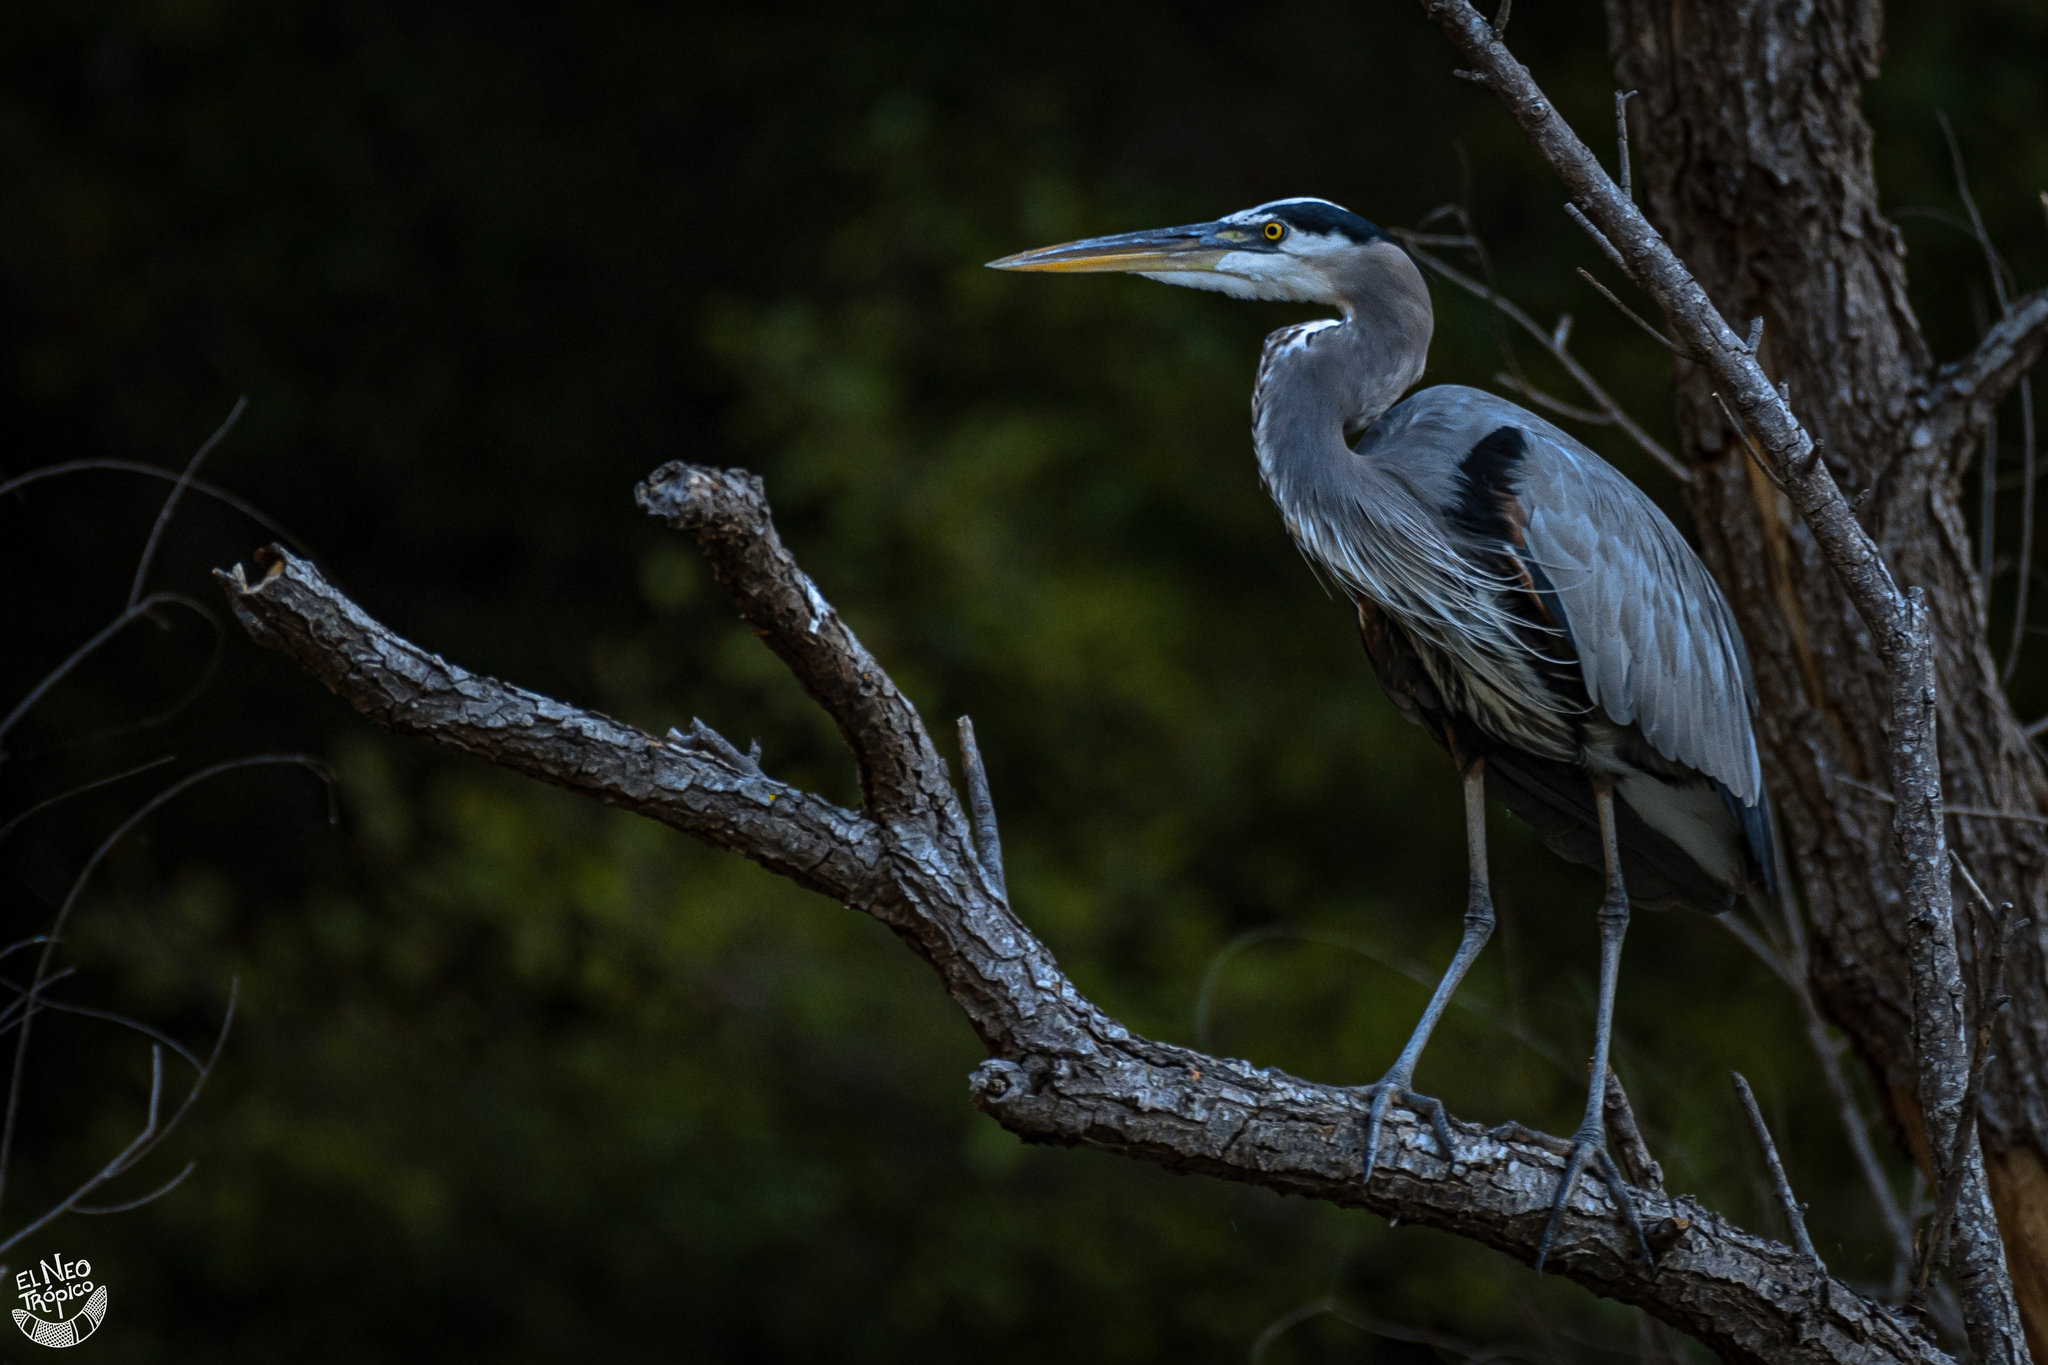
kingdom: Animalia
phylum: Chordata
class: Aves
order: Pelecaniformes
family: Ardeidae
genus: Ardea
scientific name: Ardea herodias
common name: Great blue heron
